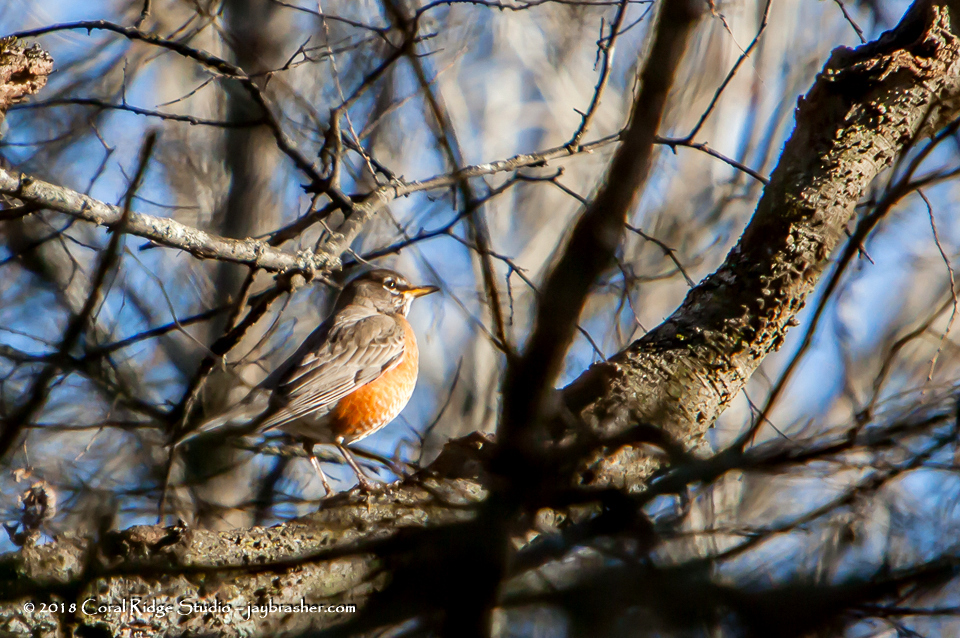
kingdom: Animalia
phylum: Chordata
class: Aves
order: Passeriformes
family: Turdidae
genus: Turdus
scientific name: Turdus migratorius
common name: American robin
